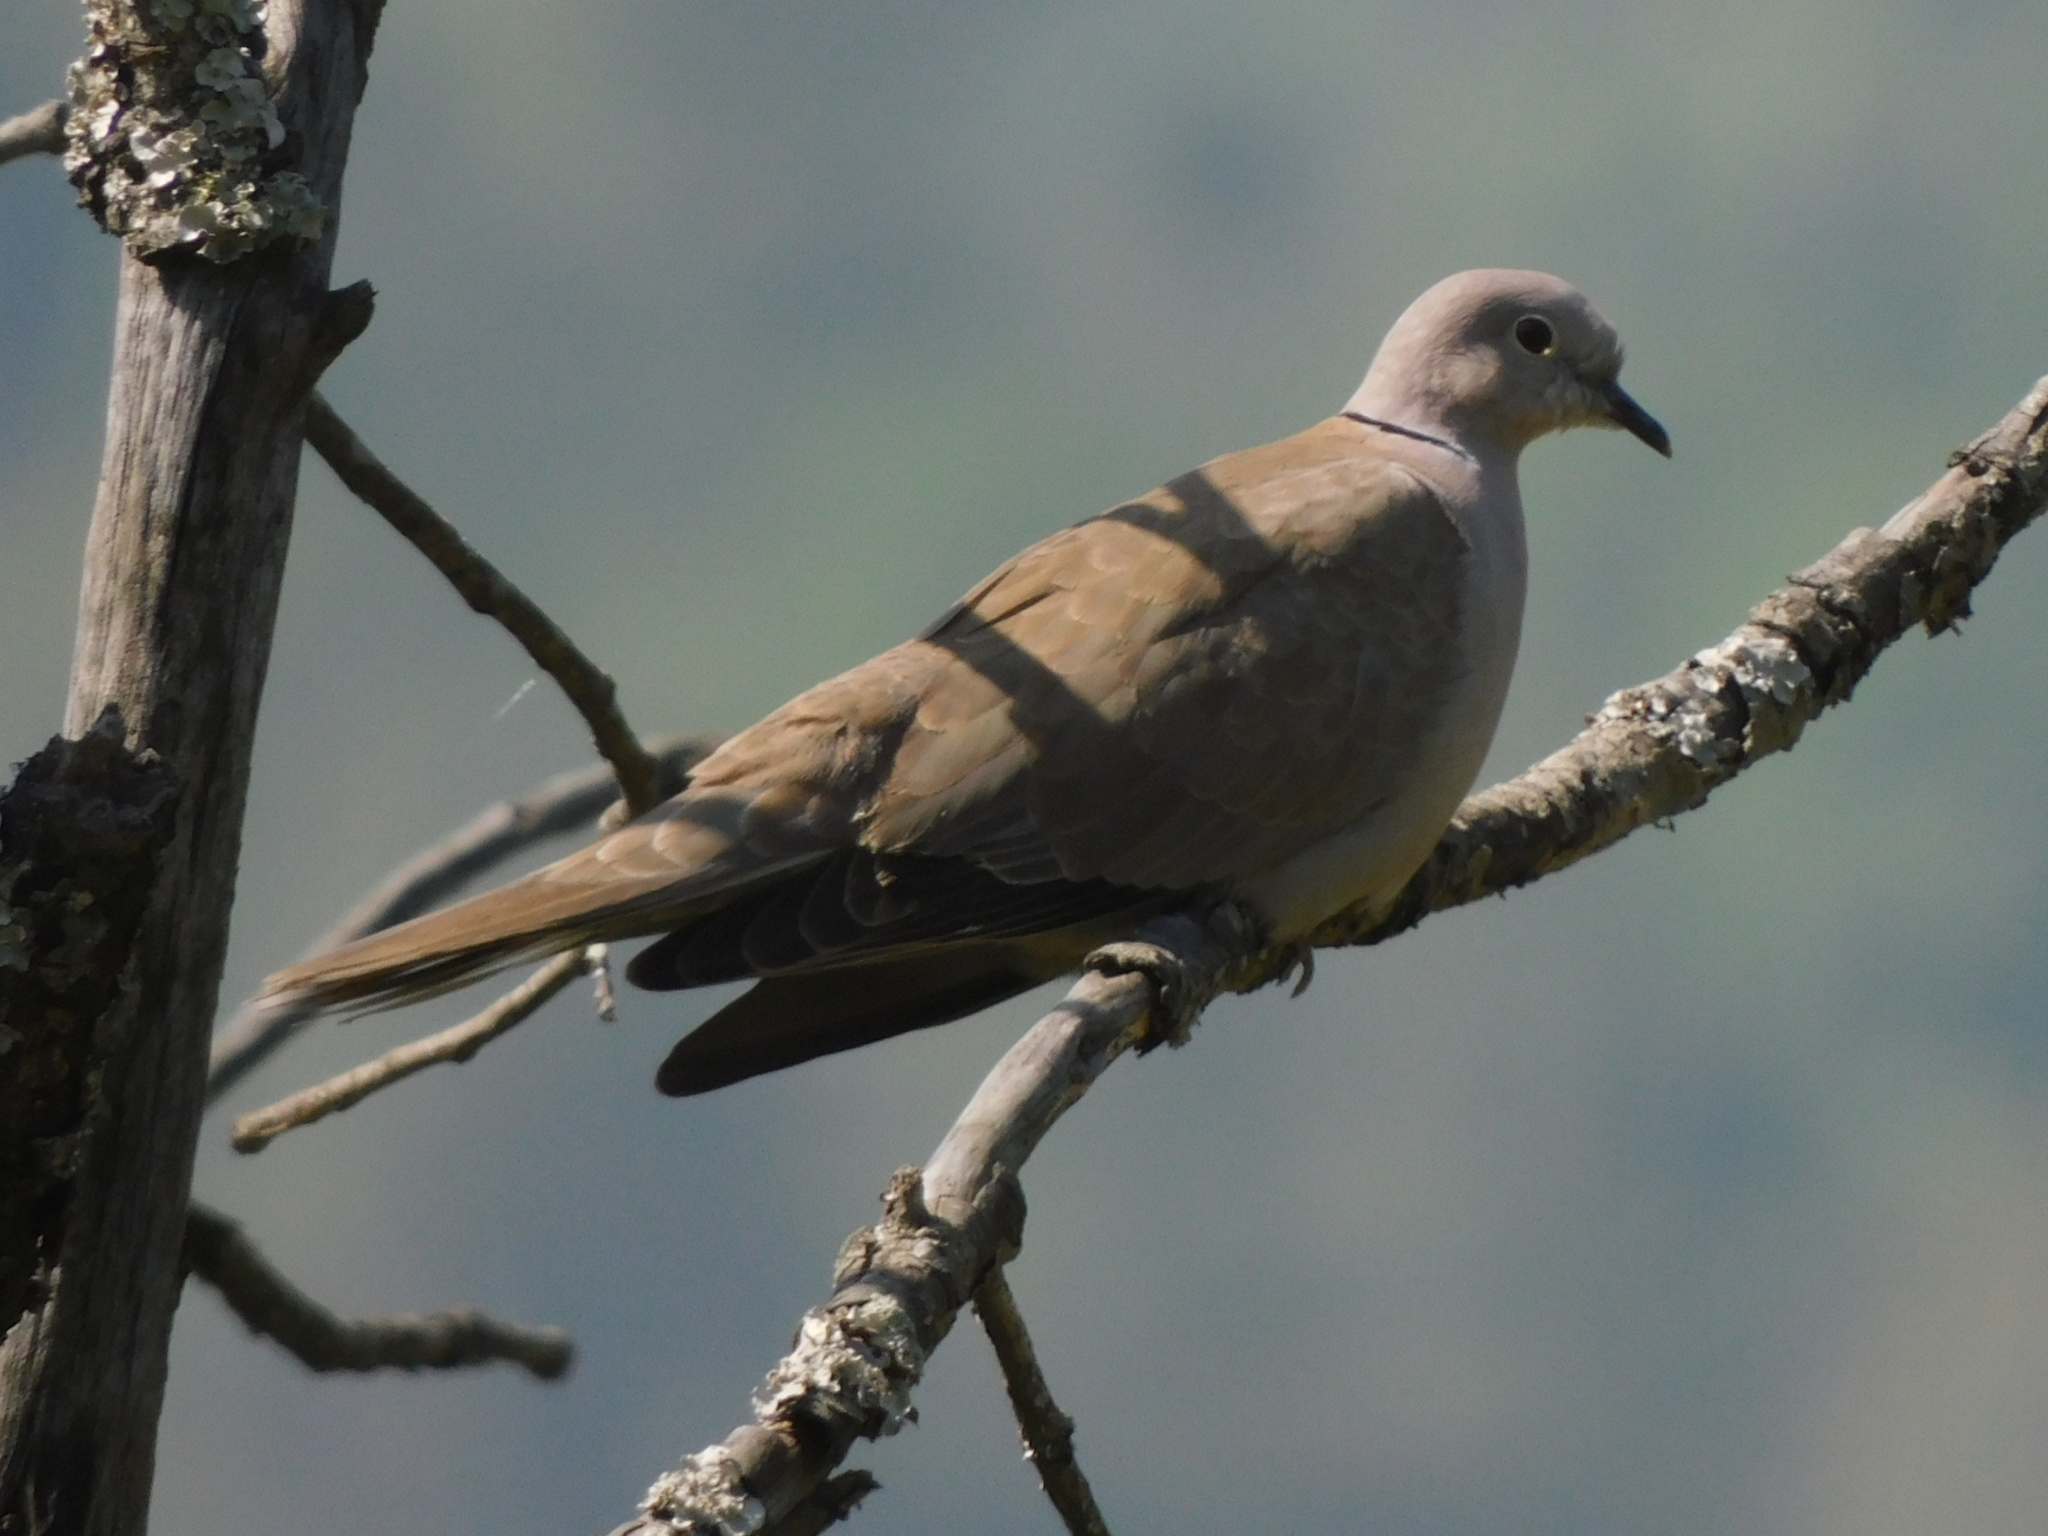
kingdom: Animalia
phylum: Chordata
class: Aves
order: Columbiformes
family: Columbidae
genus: Streptopelia
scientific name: Streptopelia decaocto
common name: Eurasian collared dove
